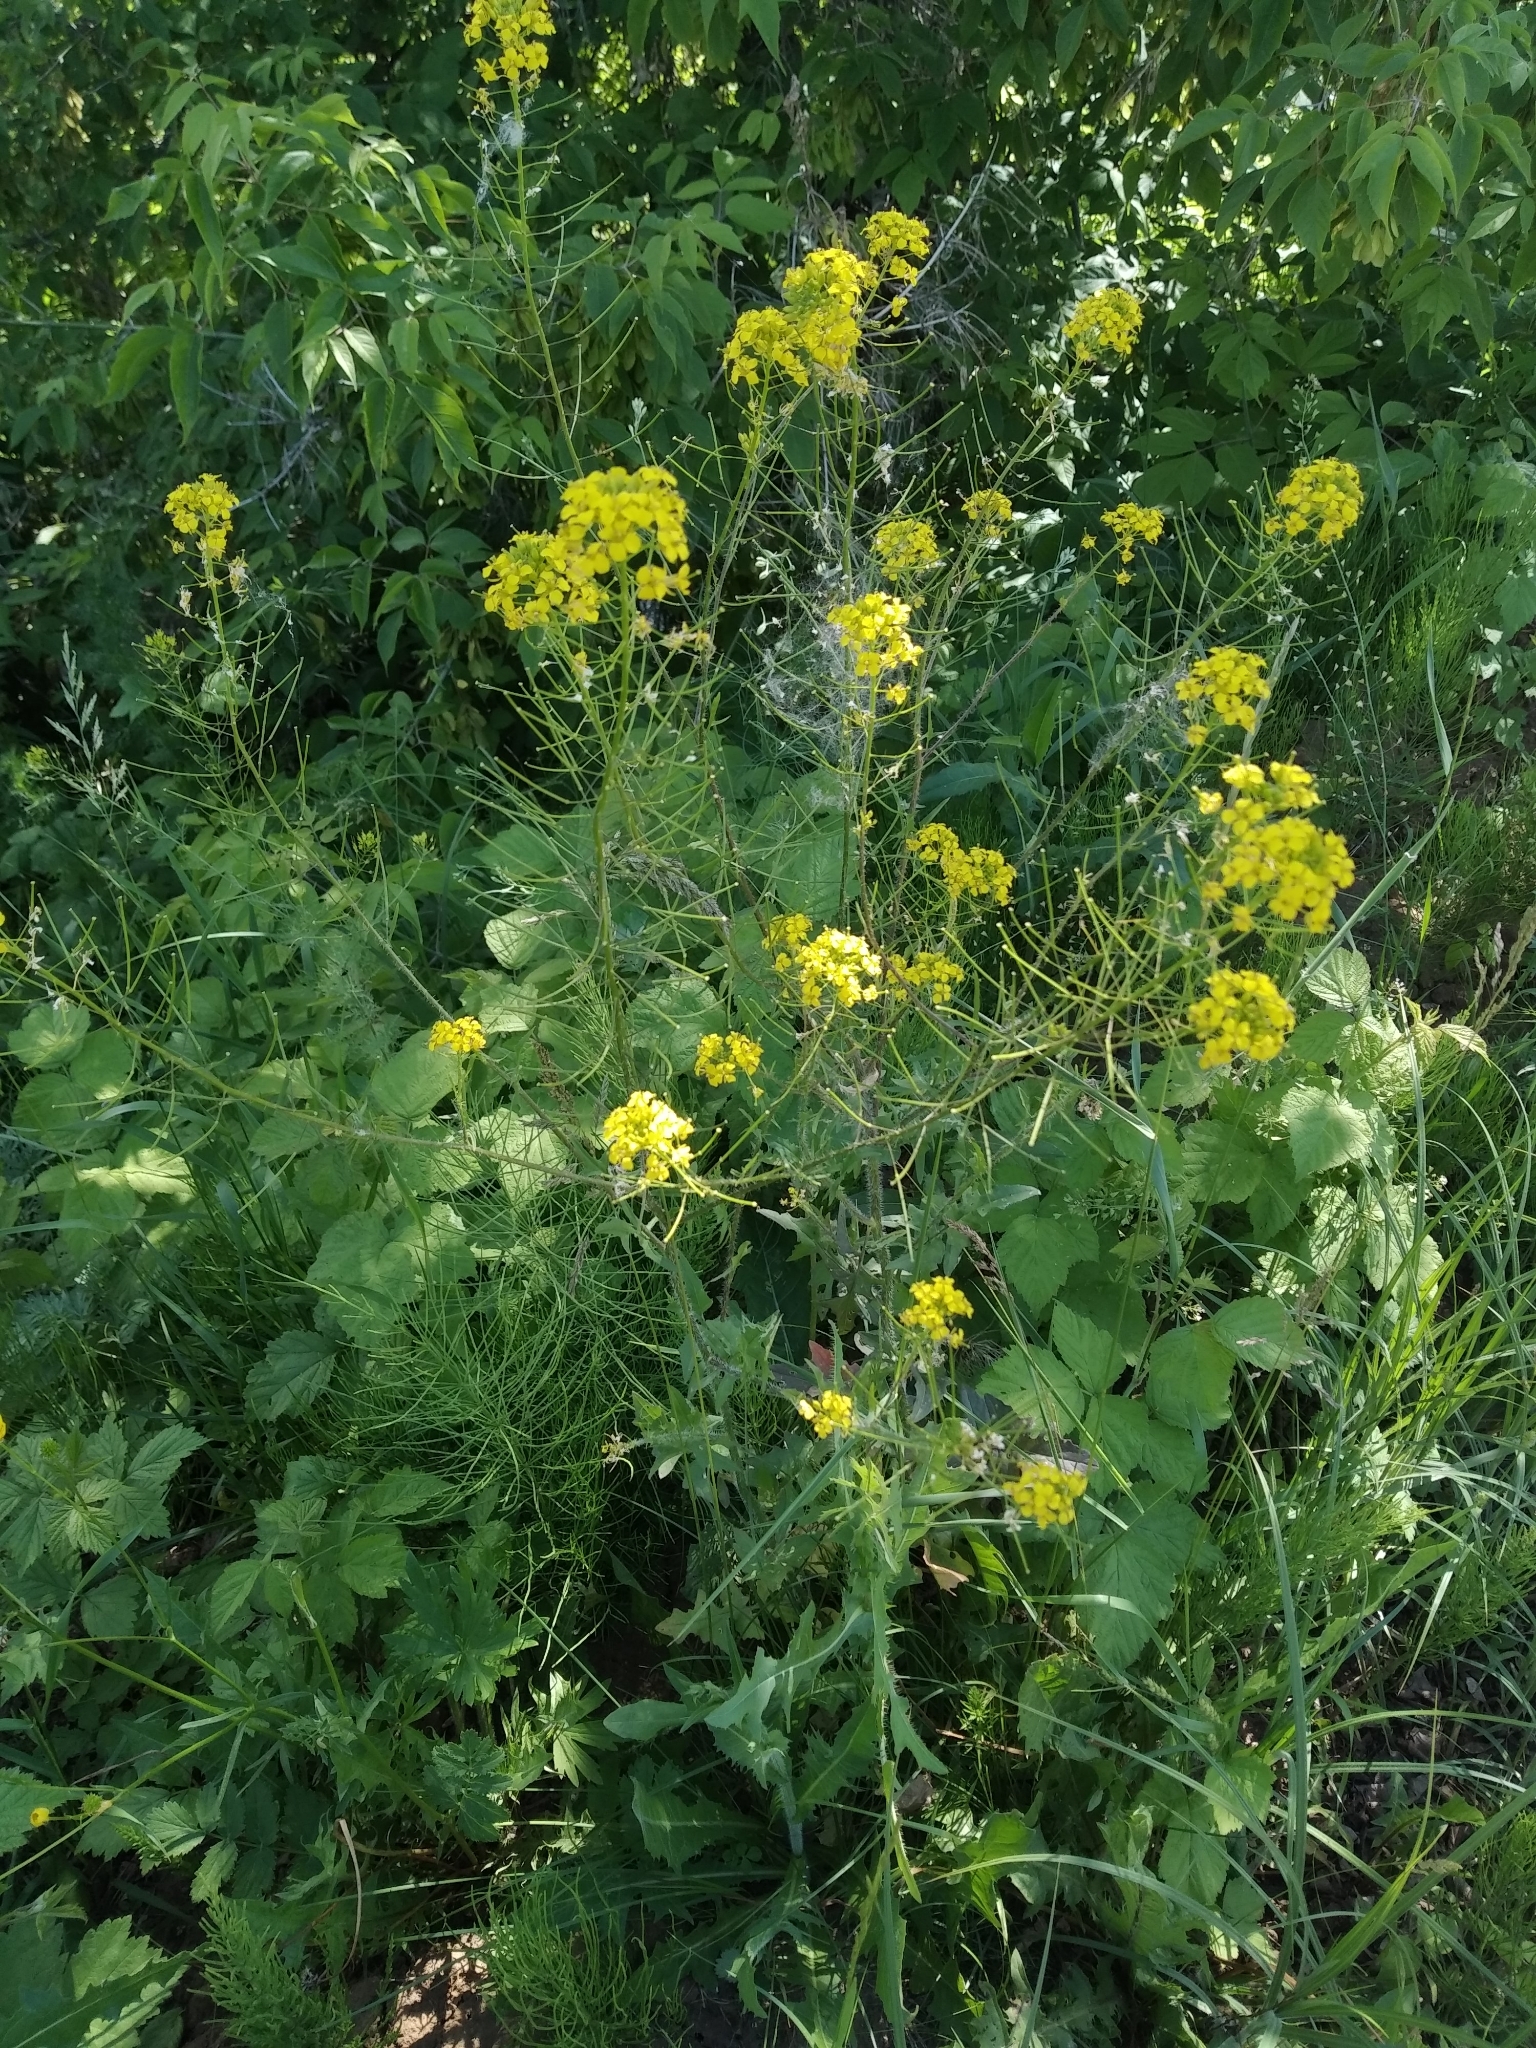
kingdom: Plantae
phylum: Tracheophyta
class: Magnoliopsida
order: Brassicales
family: Brassicaceae
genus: Sisymbrium
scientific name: Sisymbrium loeselii
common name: False london-rocket
